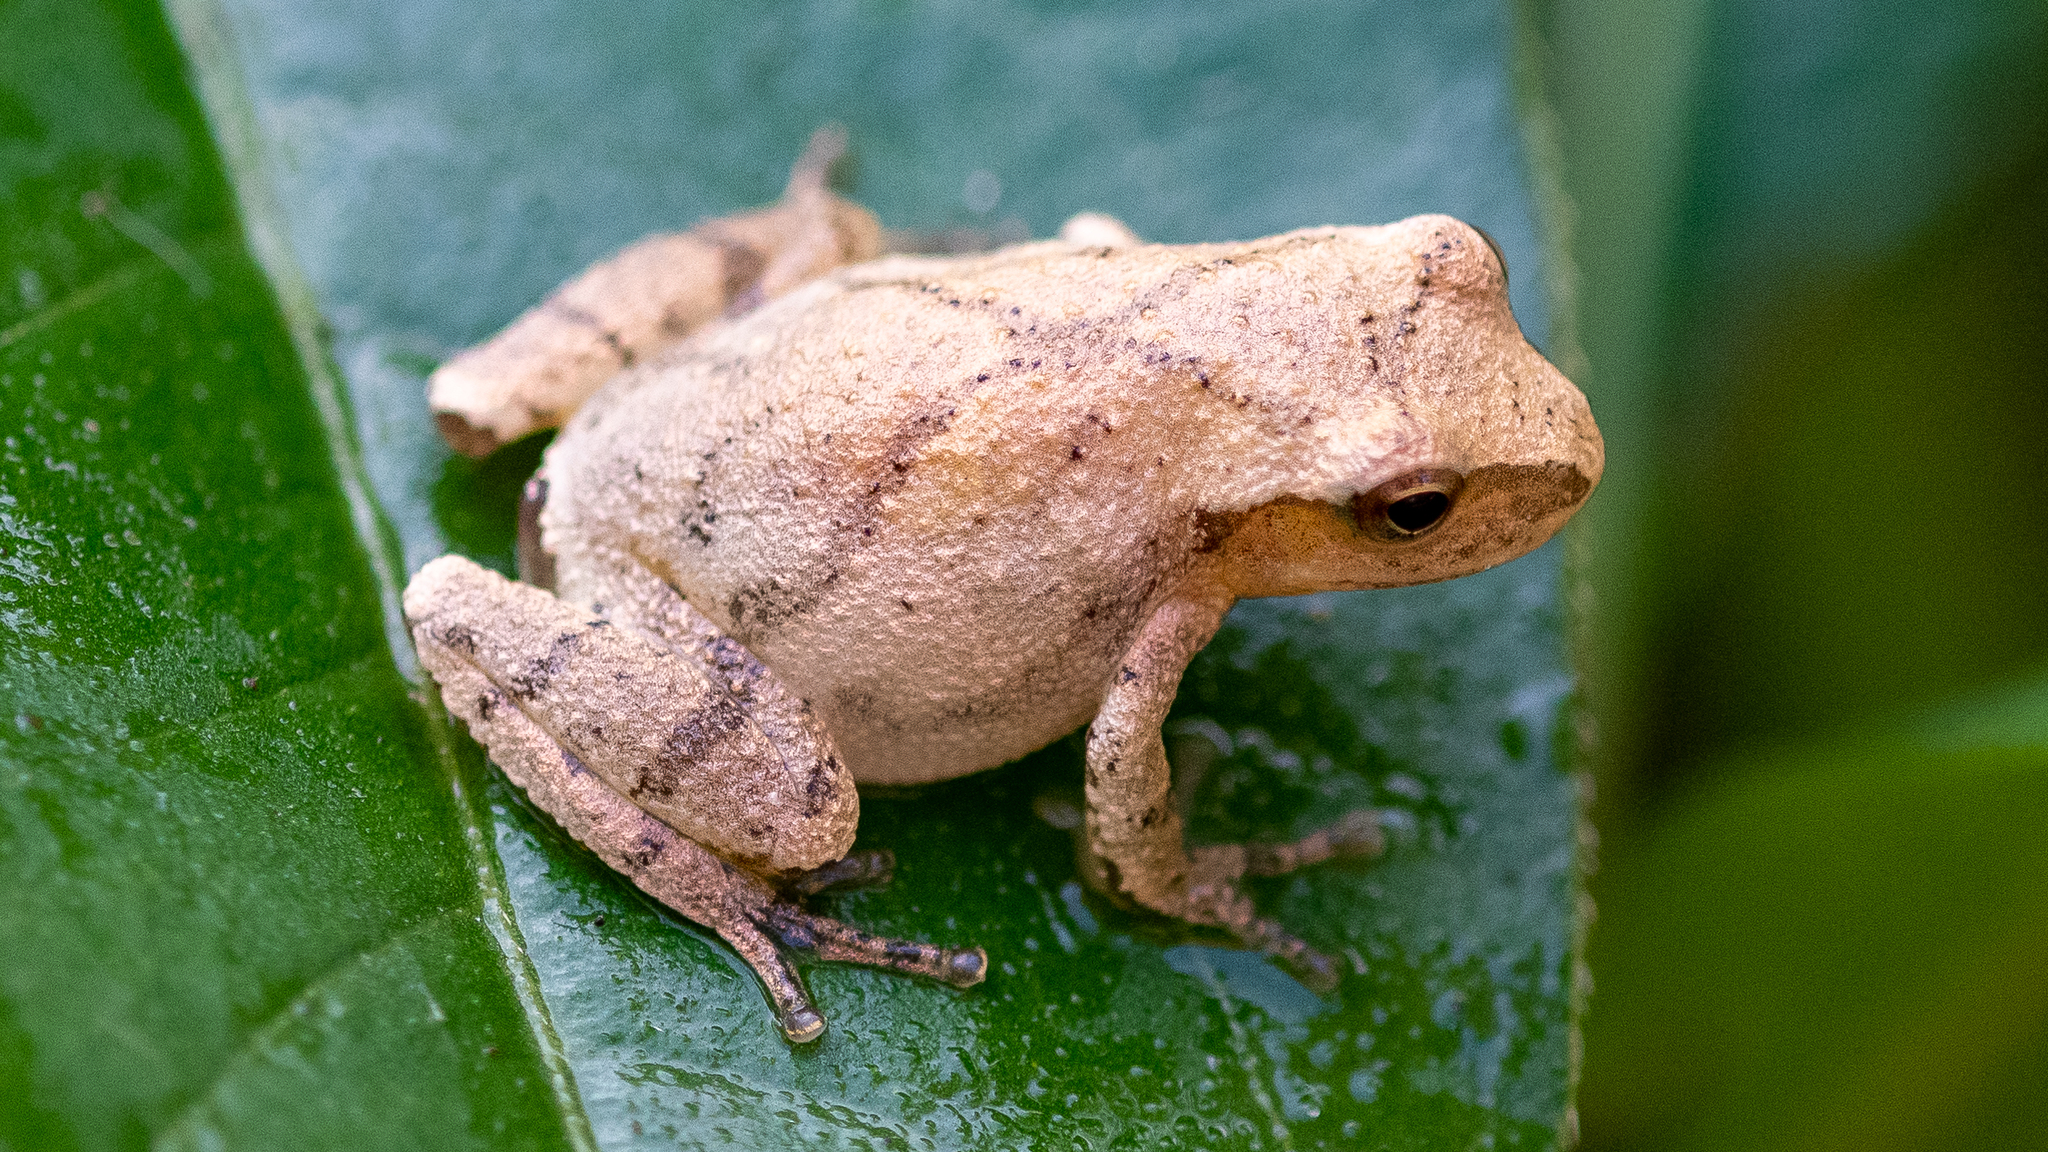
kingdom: Animalia
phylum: Chordata
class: Amphibia
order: Anura
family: Hylidae
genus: Pseudacris
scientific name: Pseudacris crucifer
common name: Spring peeper
